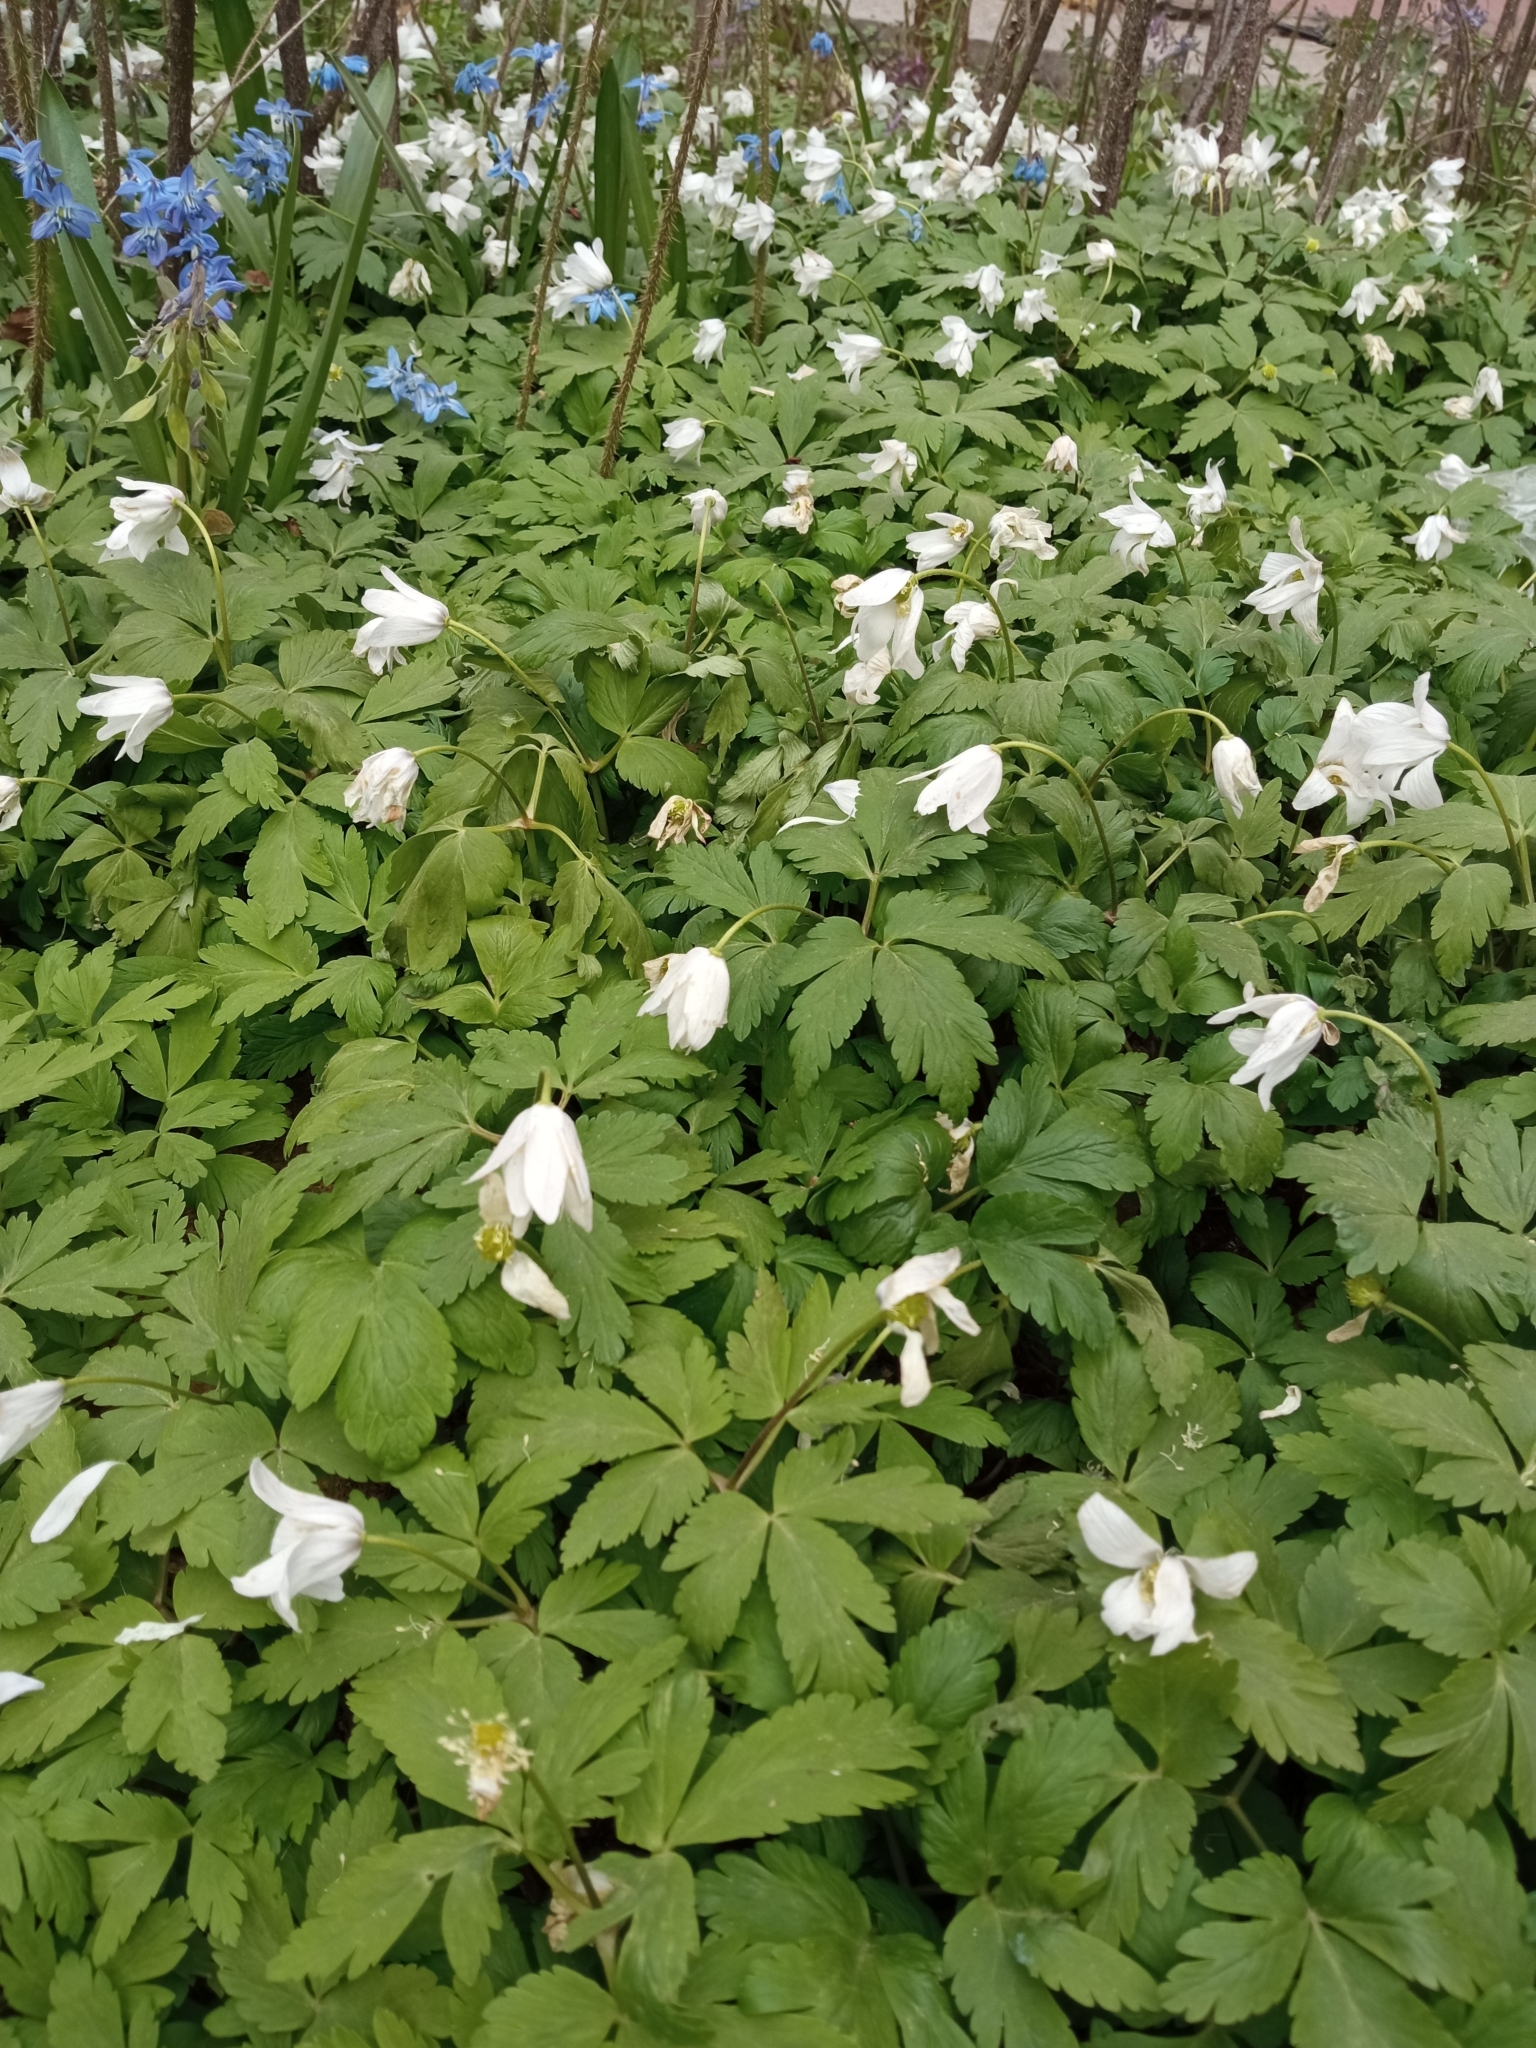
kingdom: Plantae
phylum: Tracheophyta
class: Magnoliopsida
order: Ranunculales
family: Ranunculaceae
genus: Anemone
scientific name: Anemone altaica
